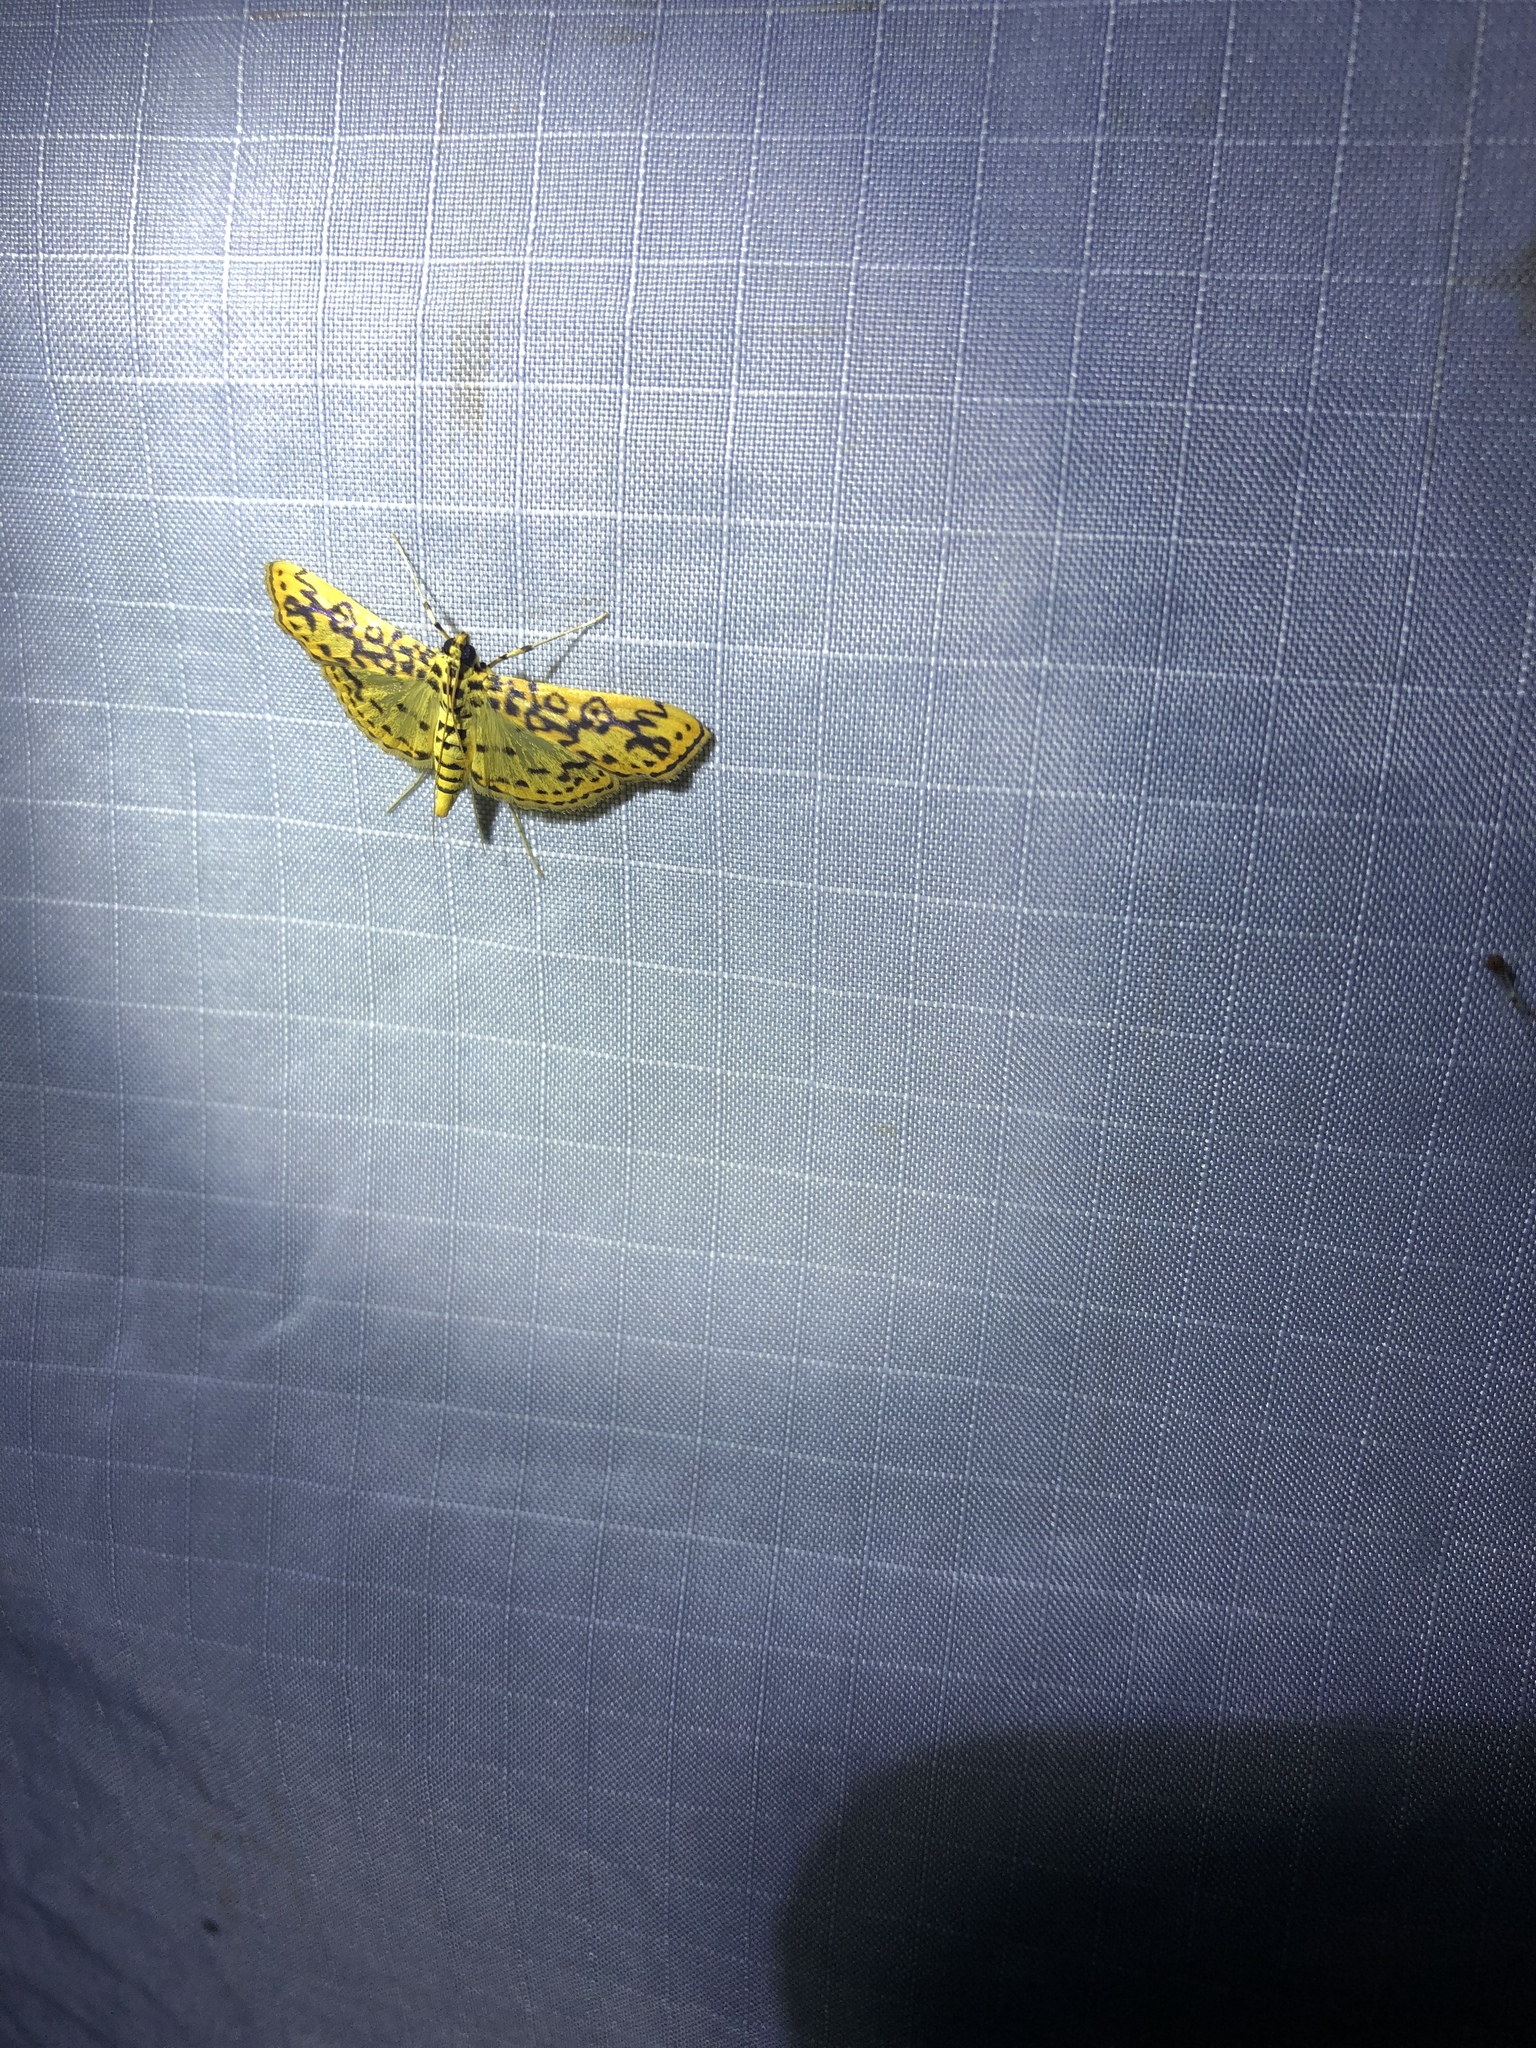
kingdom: Animalia
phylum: Arthropoda
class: Insecta
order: Lepidoptera
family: Crambidae
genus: Asturodes
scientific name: Asturodes fimbriauralis
